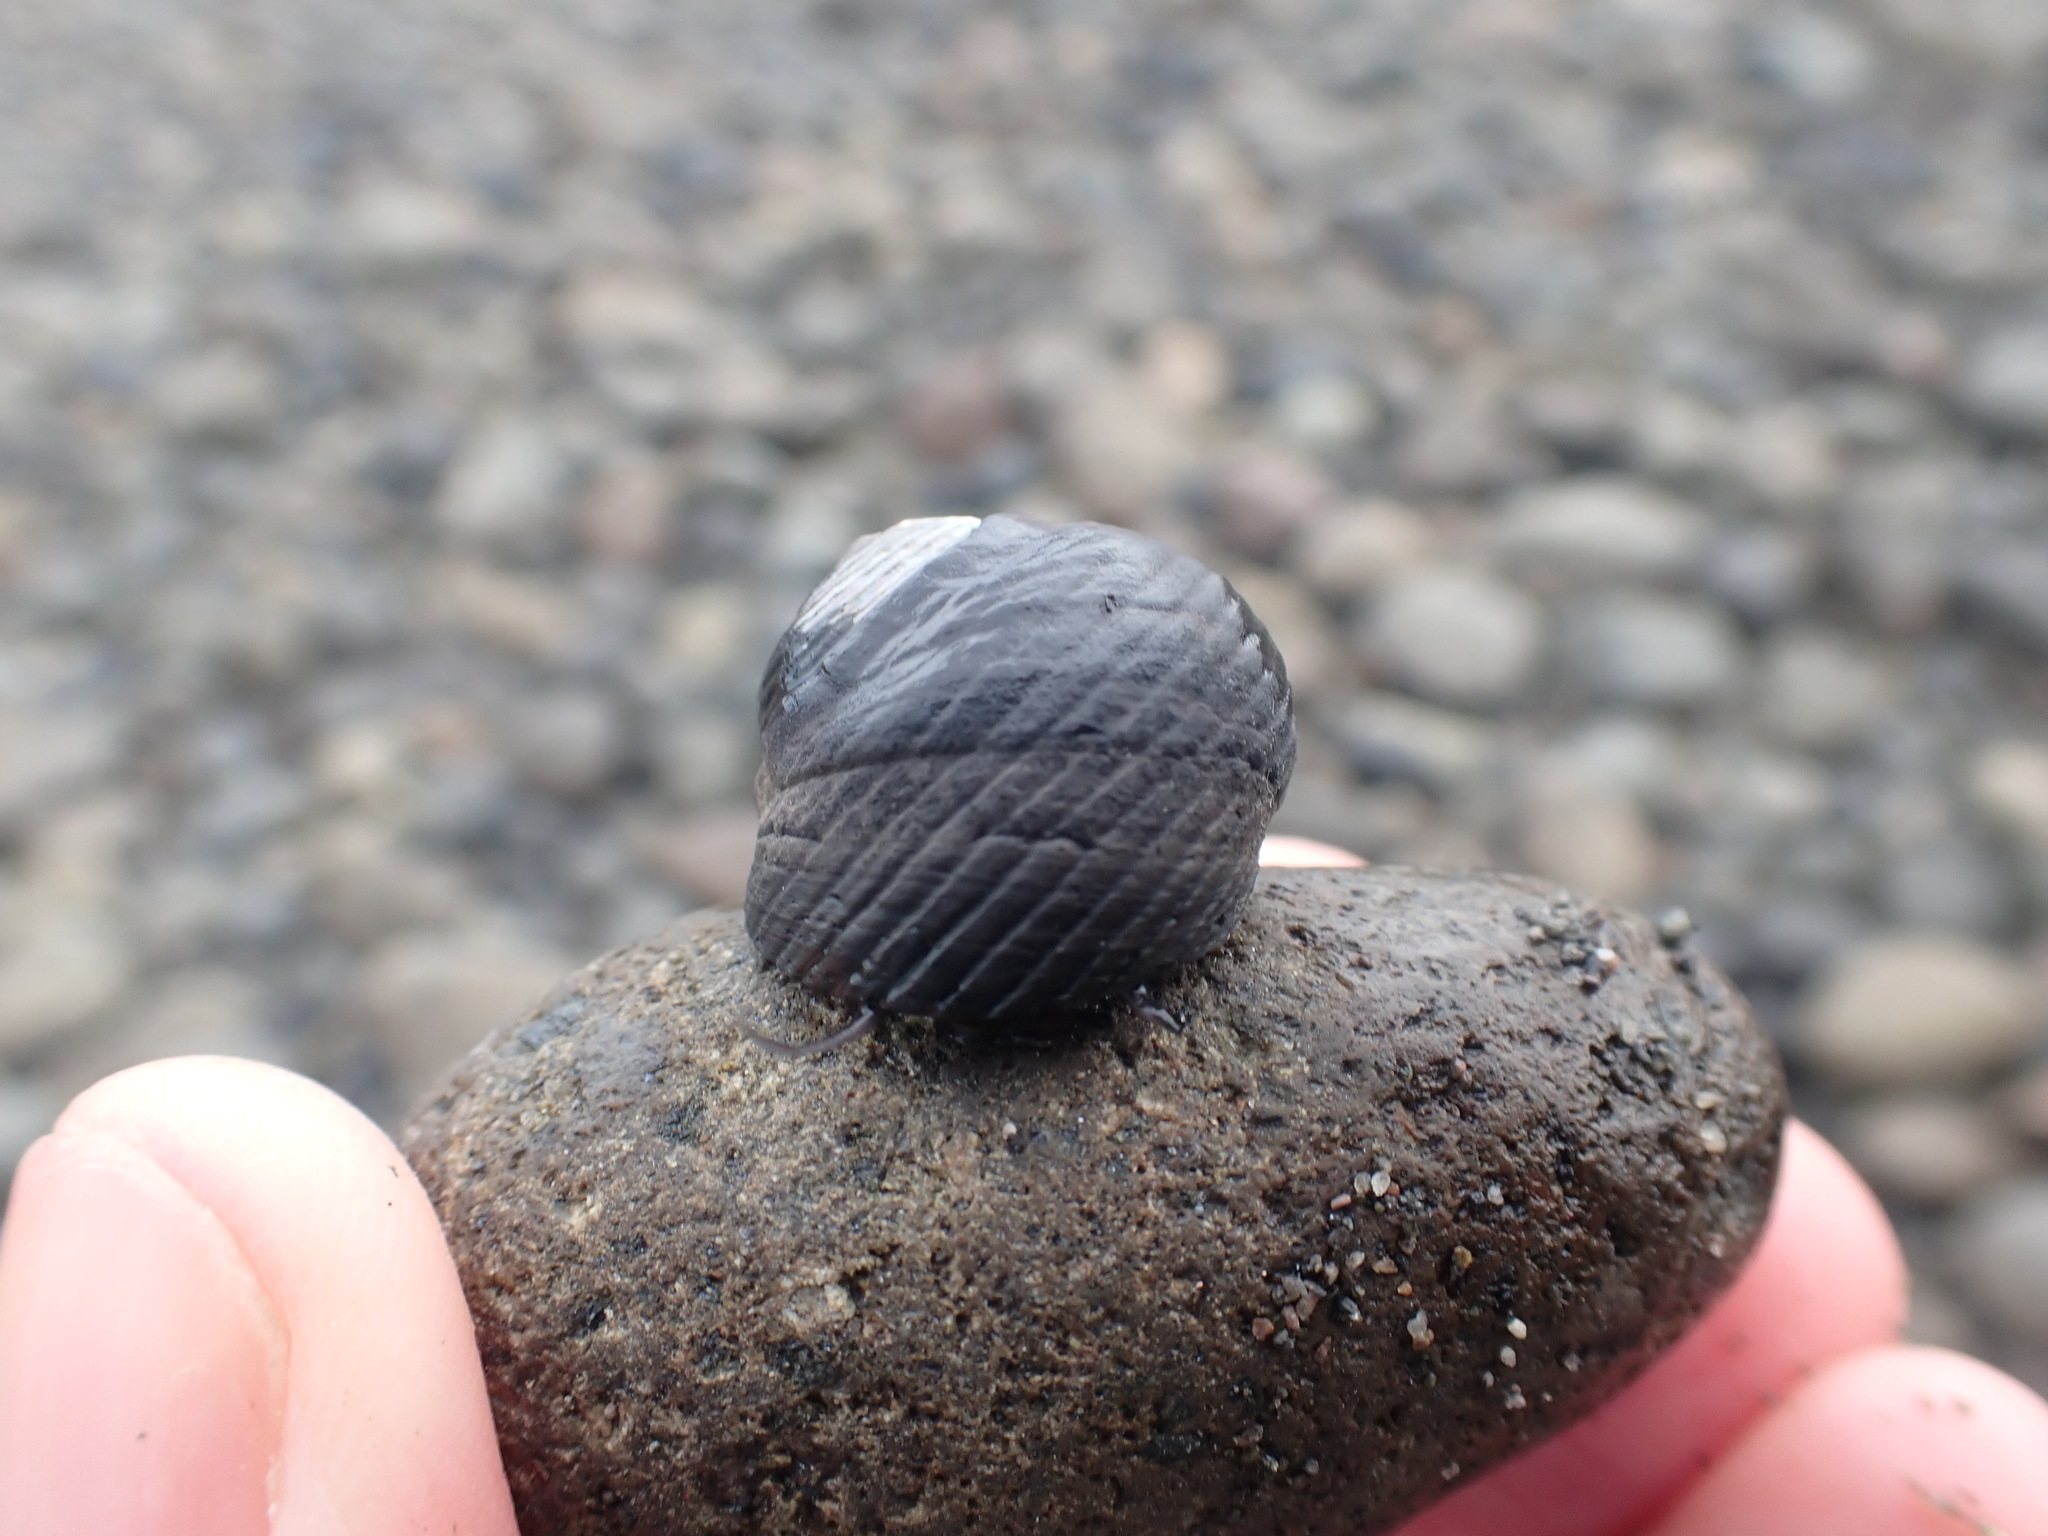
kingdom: Animalia
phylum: Mollusca
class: Gastropoda
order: Trochida
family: Trochidae
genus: Diloma
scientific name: Diloma zelandicum
